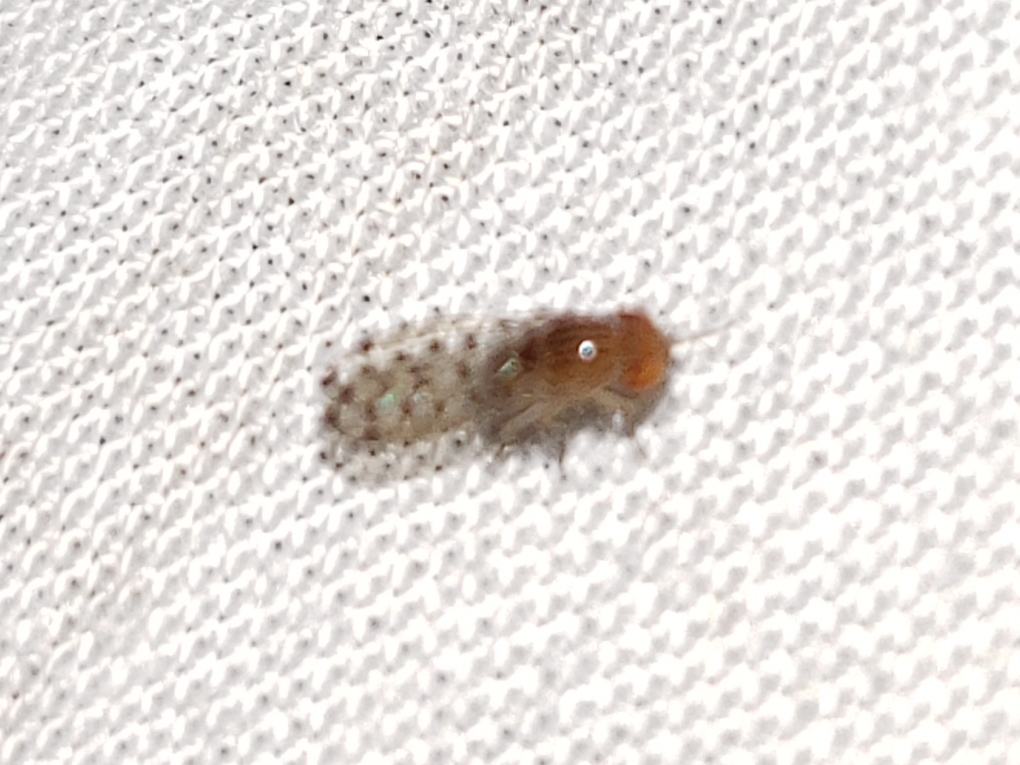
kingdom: Animalia
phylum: Arthropoda
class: Insecta
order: Diptera
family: Drosophilidae
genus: Drosophila
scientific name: Drosophila guttifera
